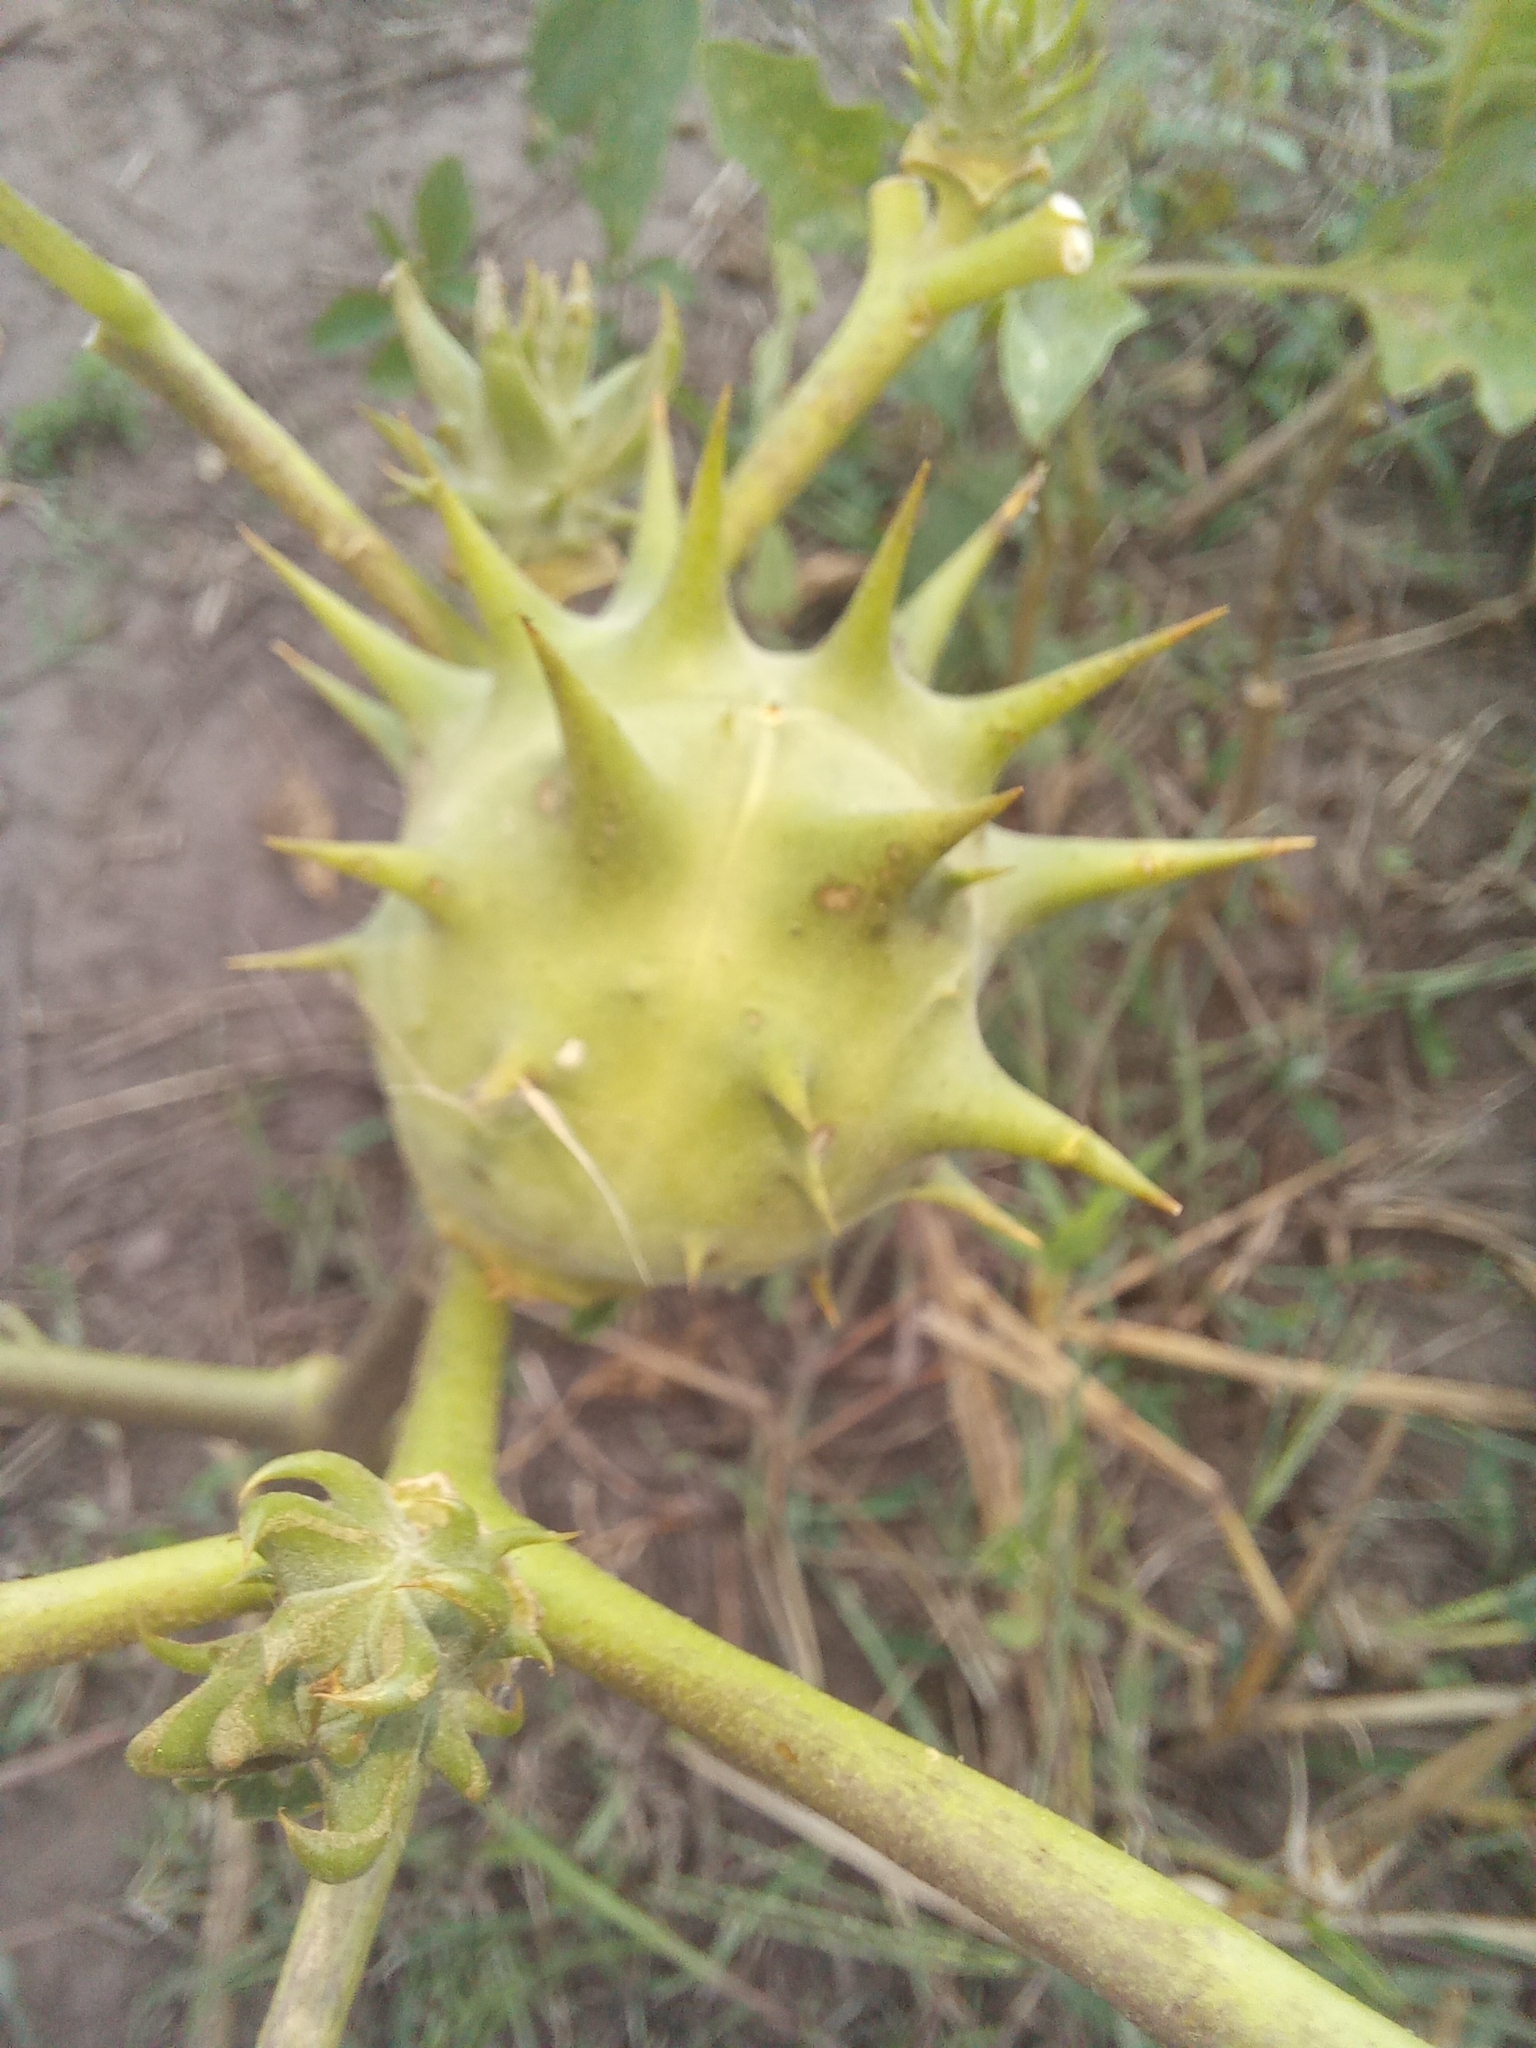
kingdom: Plantae
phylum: Tracheophyta
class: Magnoliopsida
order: Solanales
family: Solanaceae
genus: Datura
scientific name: Datura ferox
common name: Angel's-trumpets
